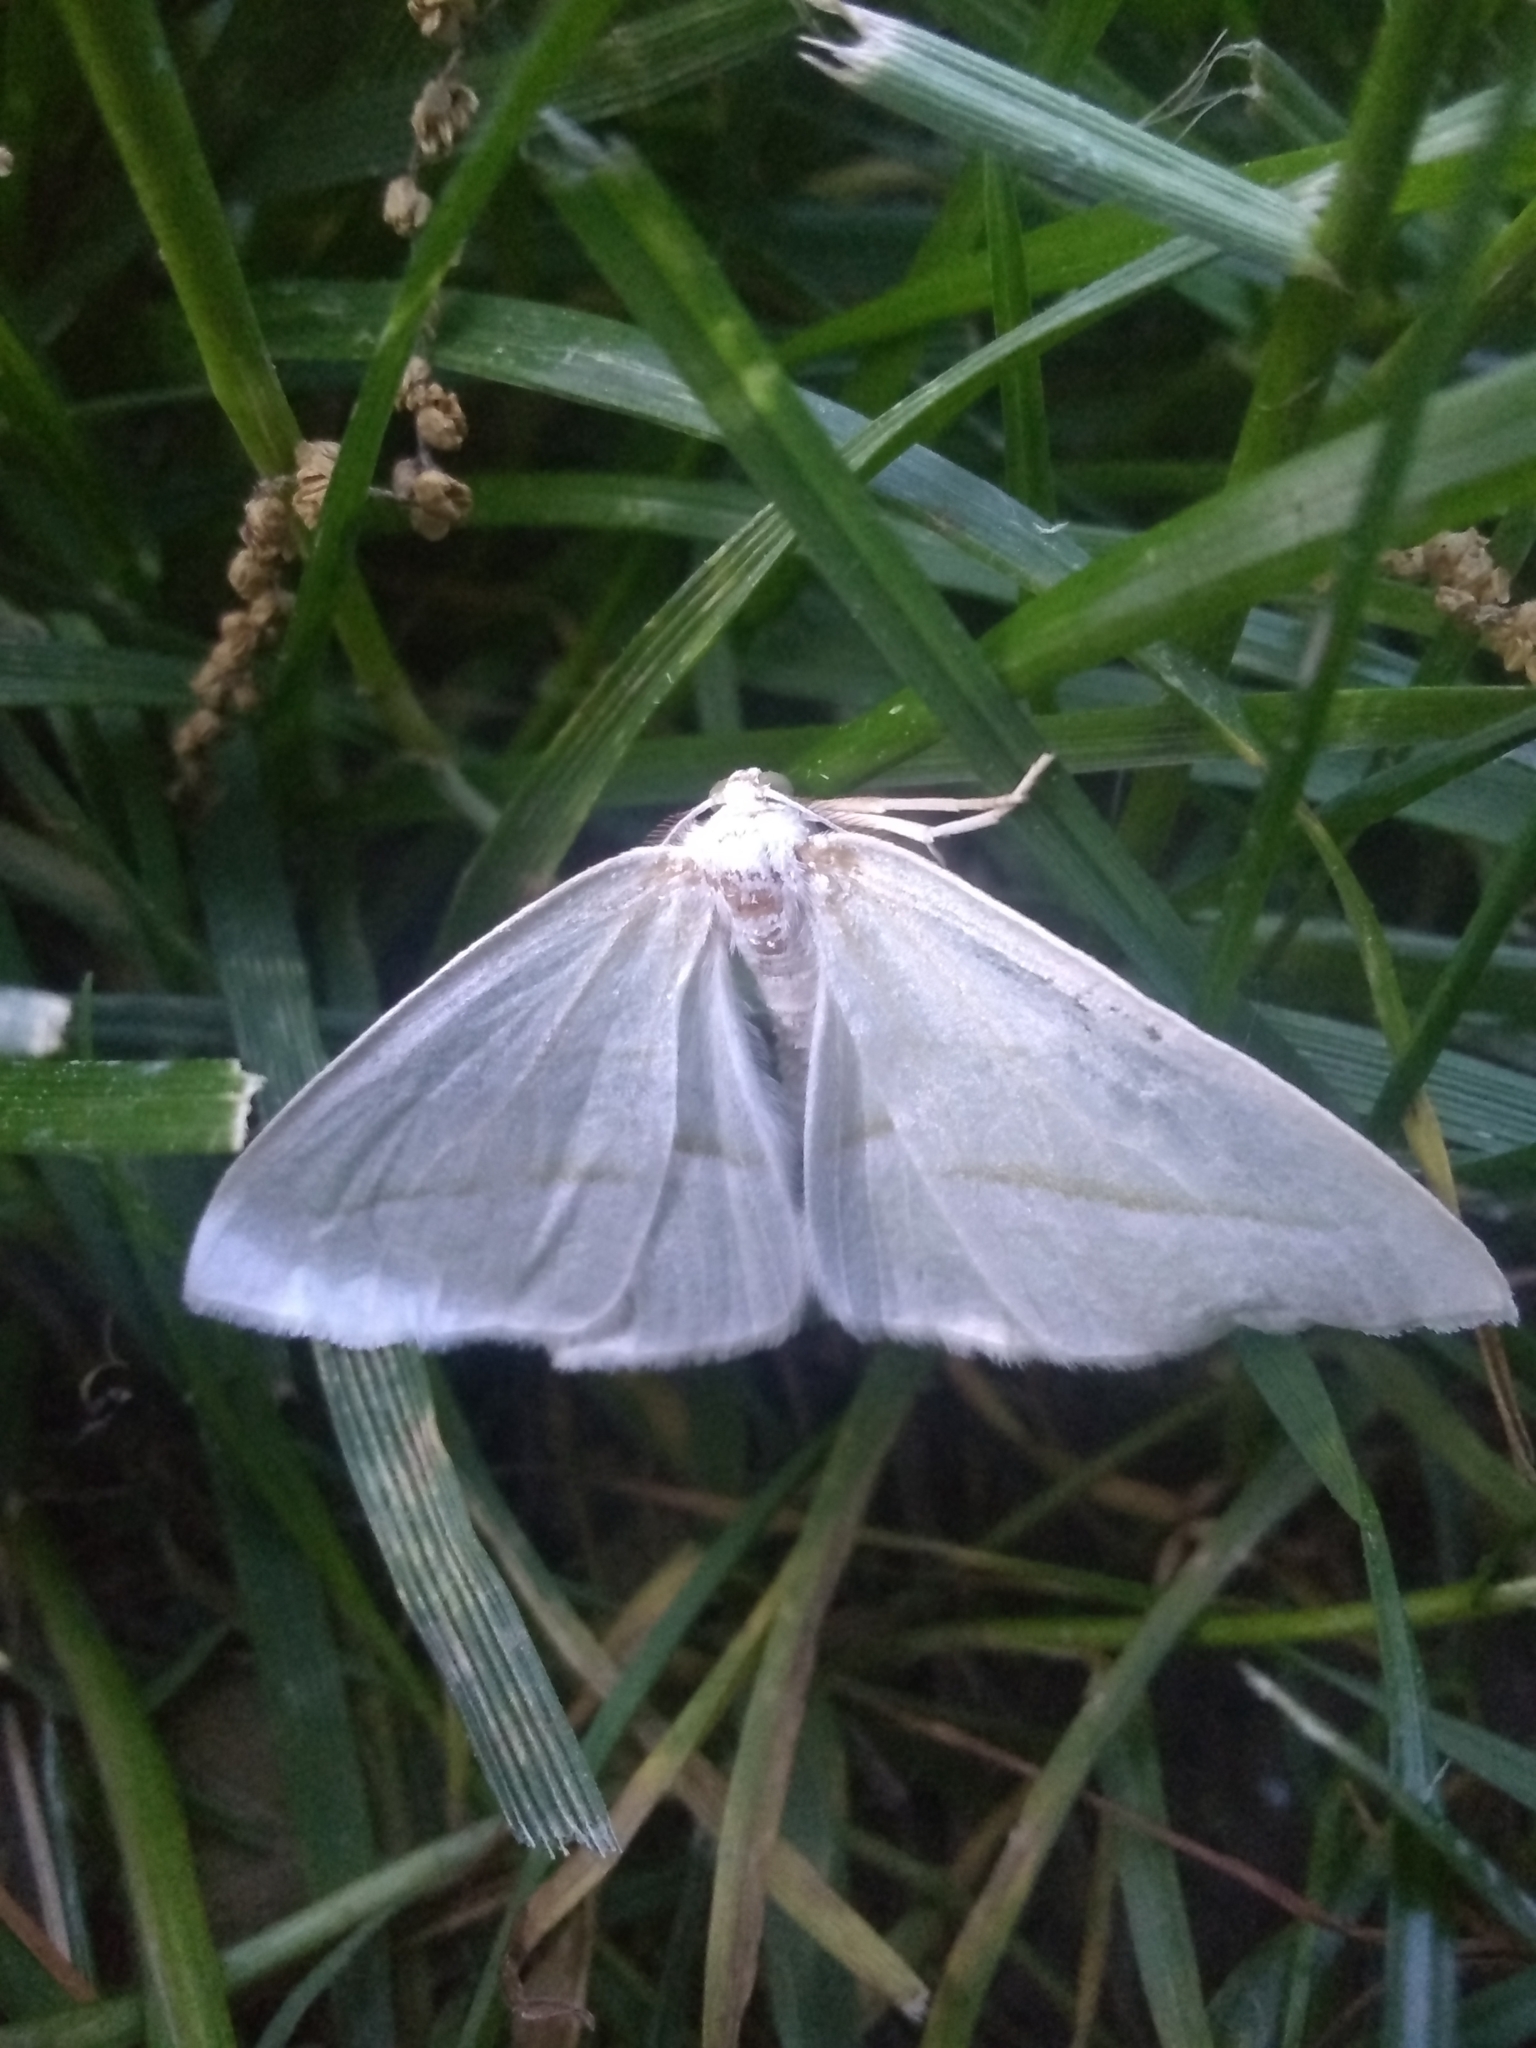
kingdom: Animalia
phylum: Arthropoda
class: Insecta
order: Lepidoptera
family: Geometridae
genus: Campaea
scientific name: Campaea perlata
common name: Fringed looper
